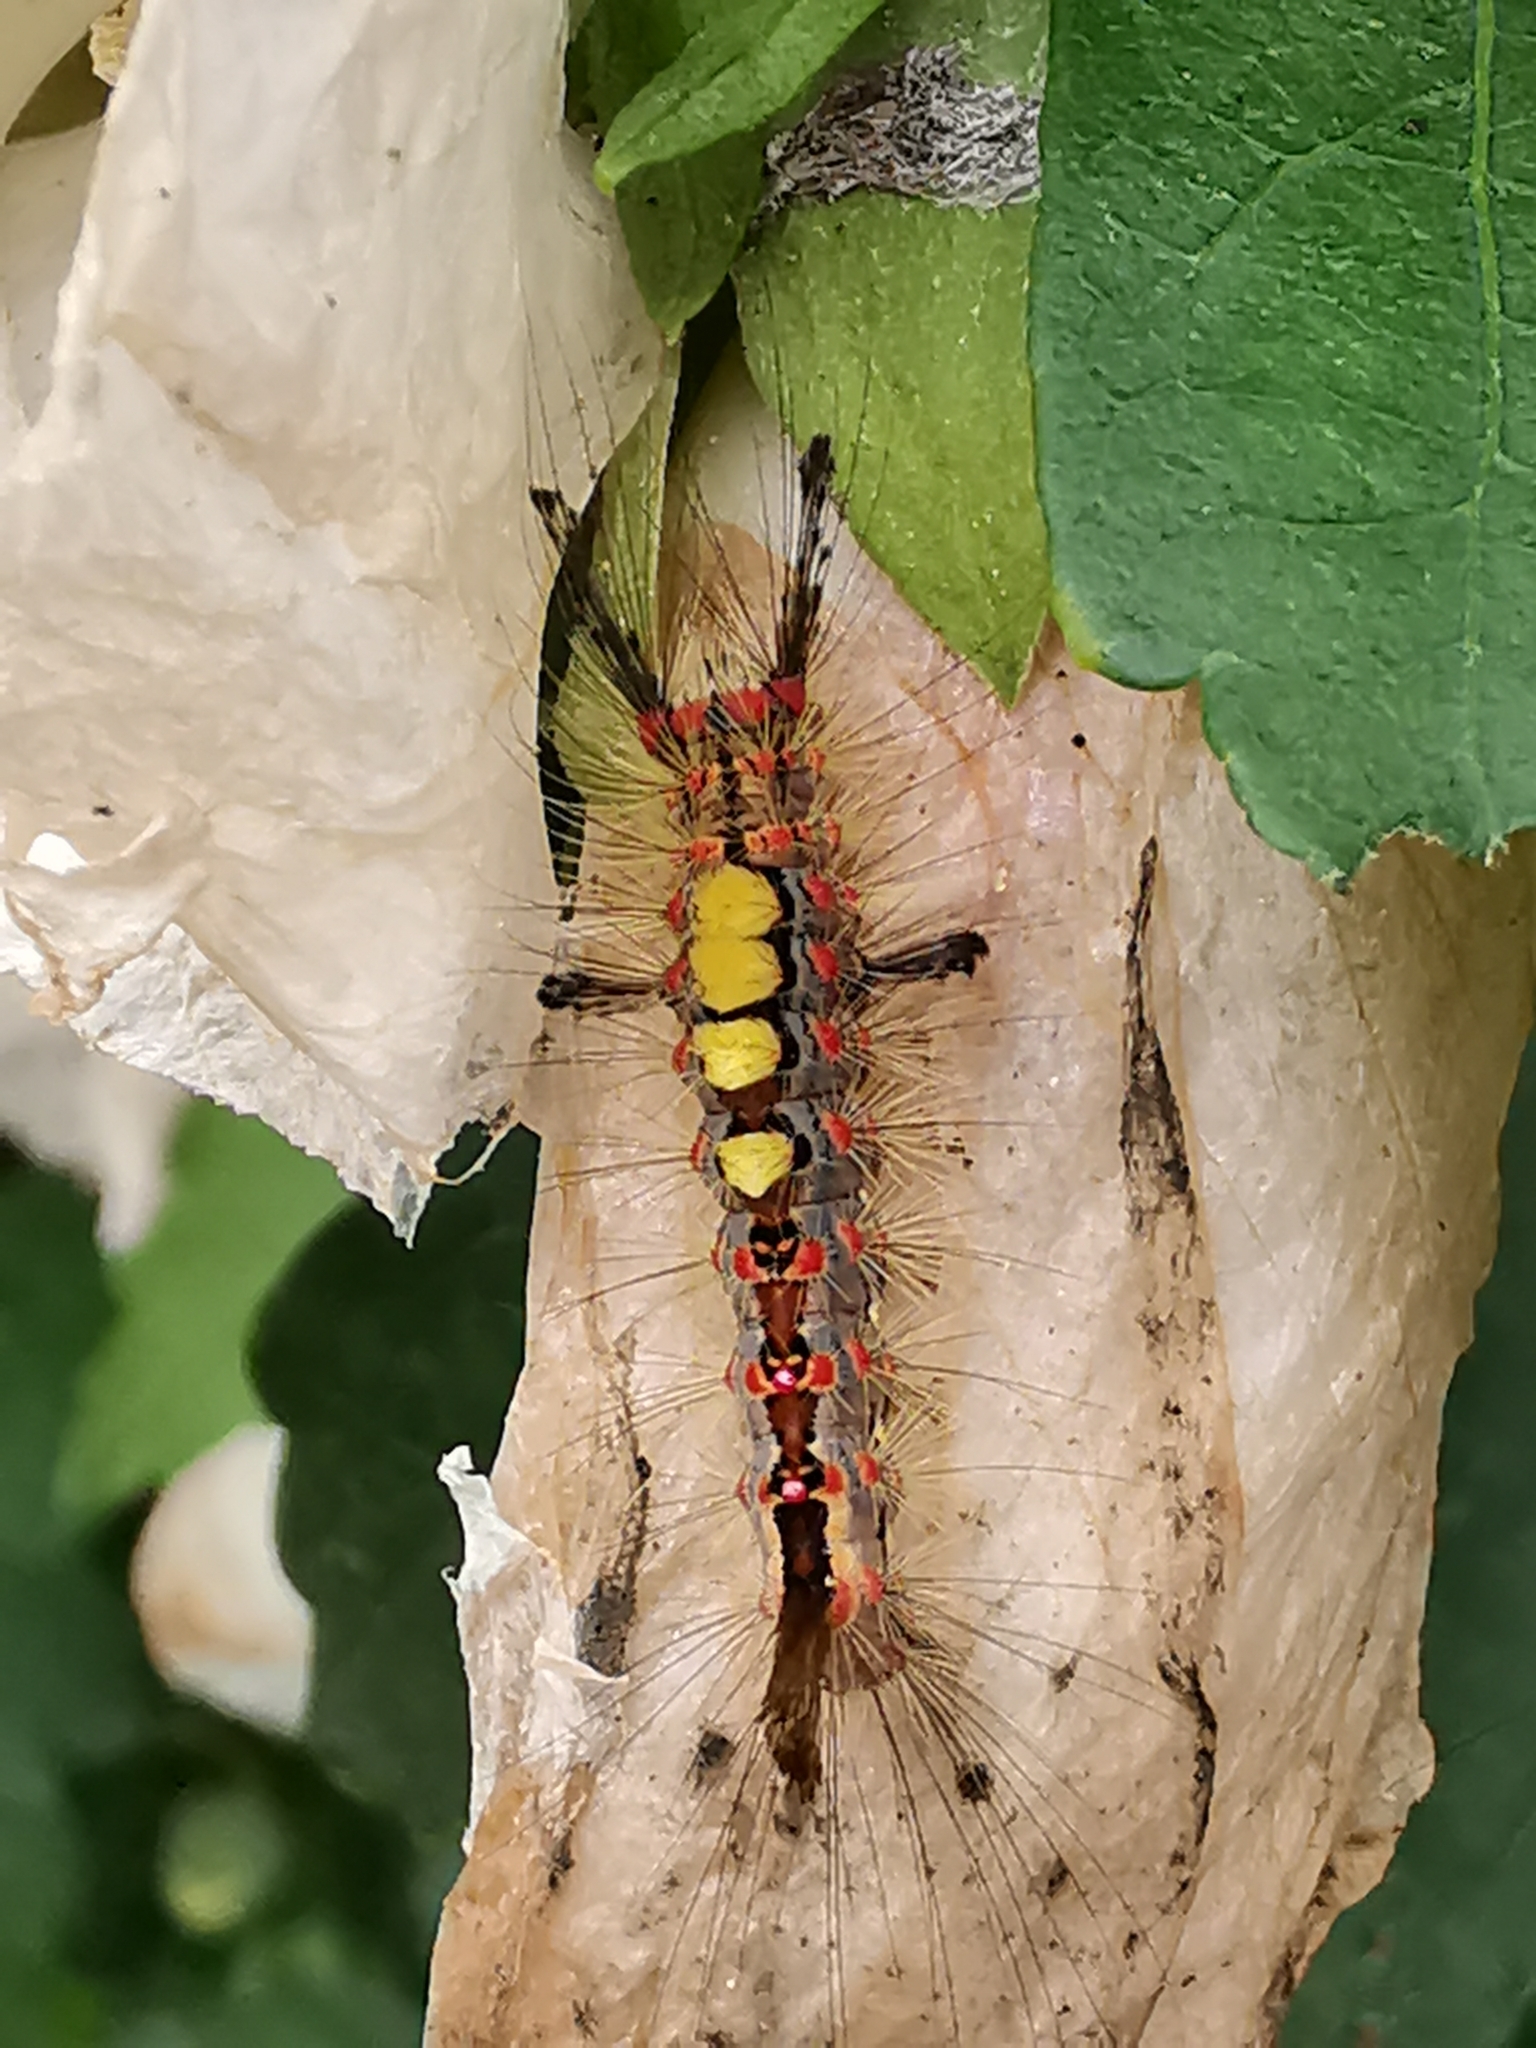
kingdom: Animalia
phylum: Arthropoda
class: Insecta
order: Lepidoptera
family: Erebidae
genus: Orgyia
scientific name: Orgyia antiqua
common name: Vapourer
